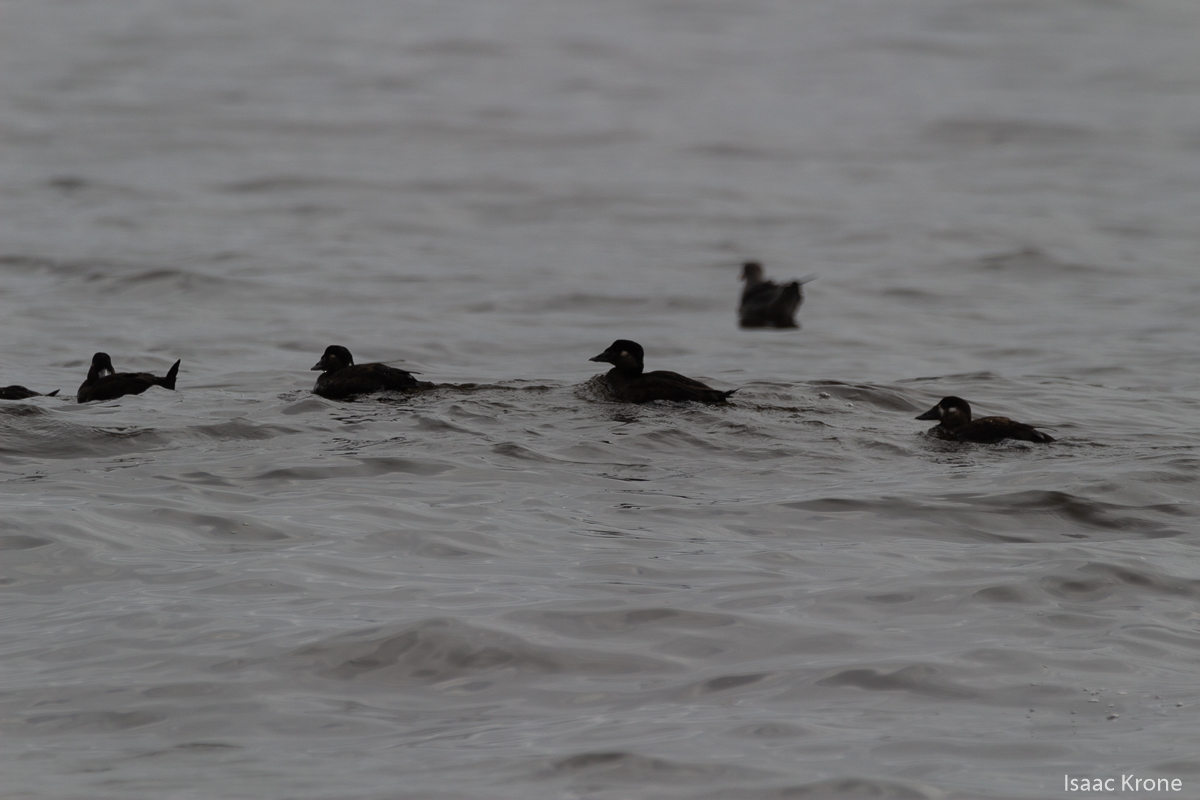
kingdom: Animalia
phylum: Chordata
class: Aves
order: Anseriformes
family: Anatidae
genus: Melanitta
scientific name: Melanitta perspicillata
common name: Surf scoter
